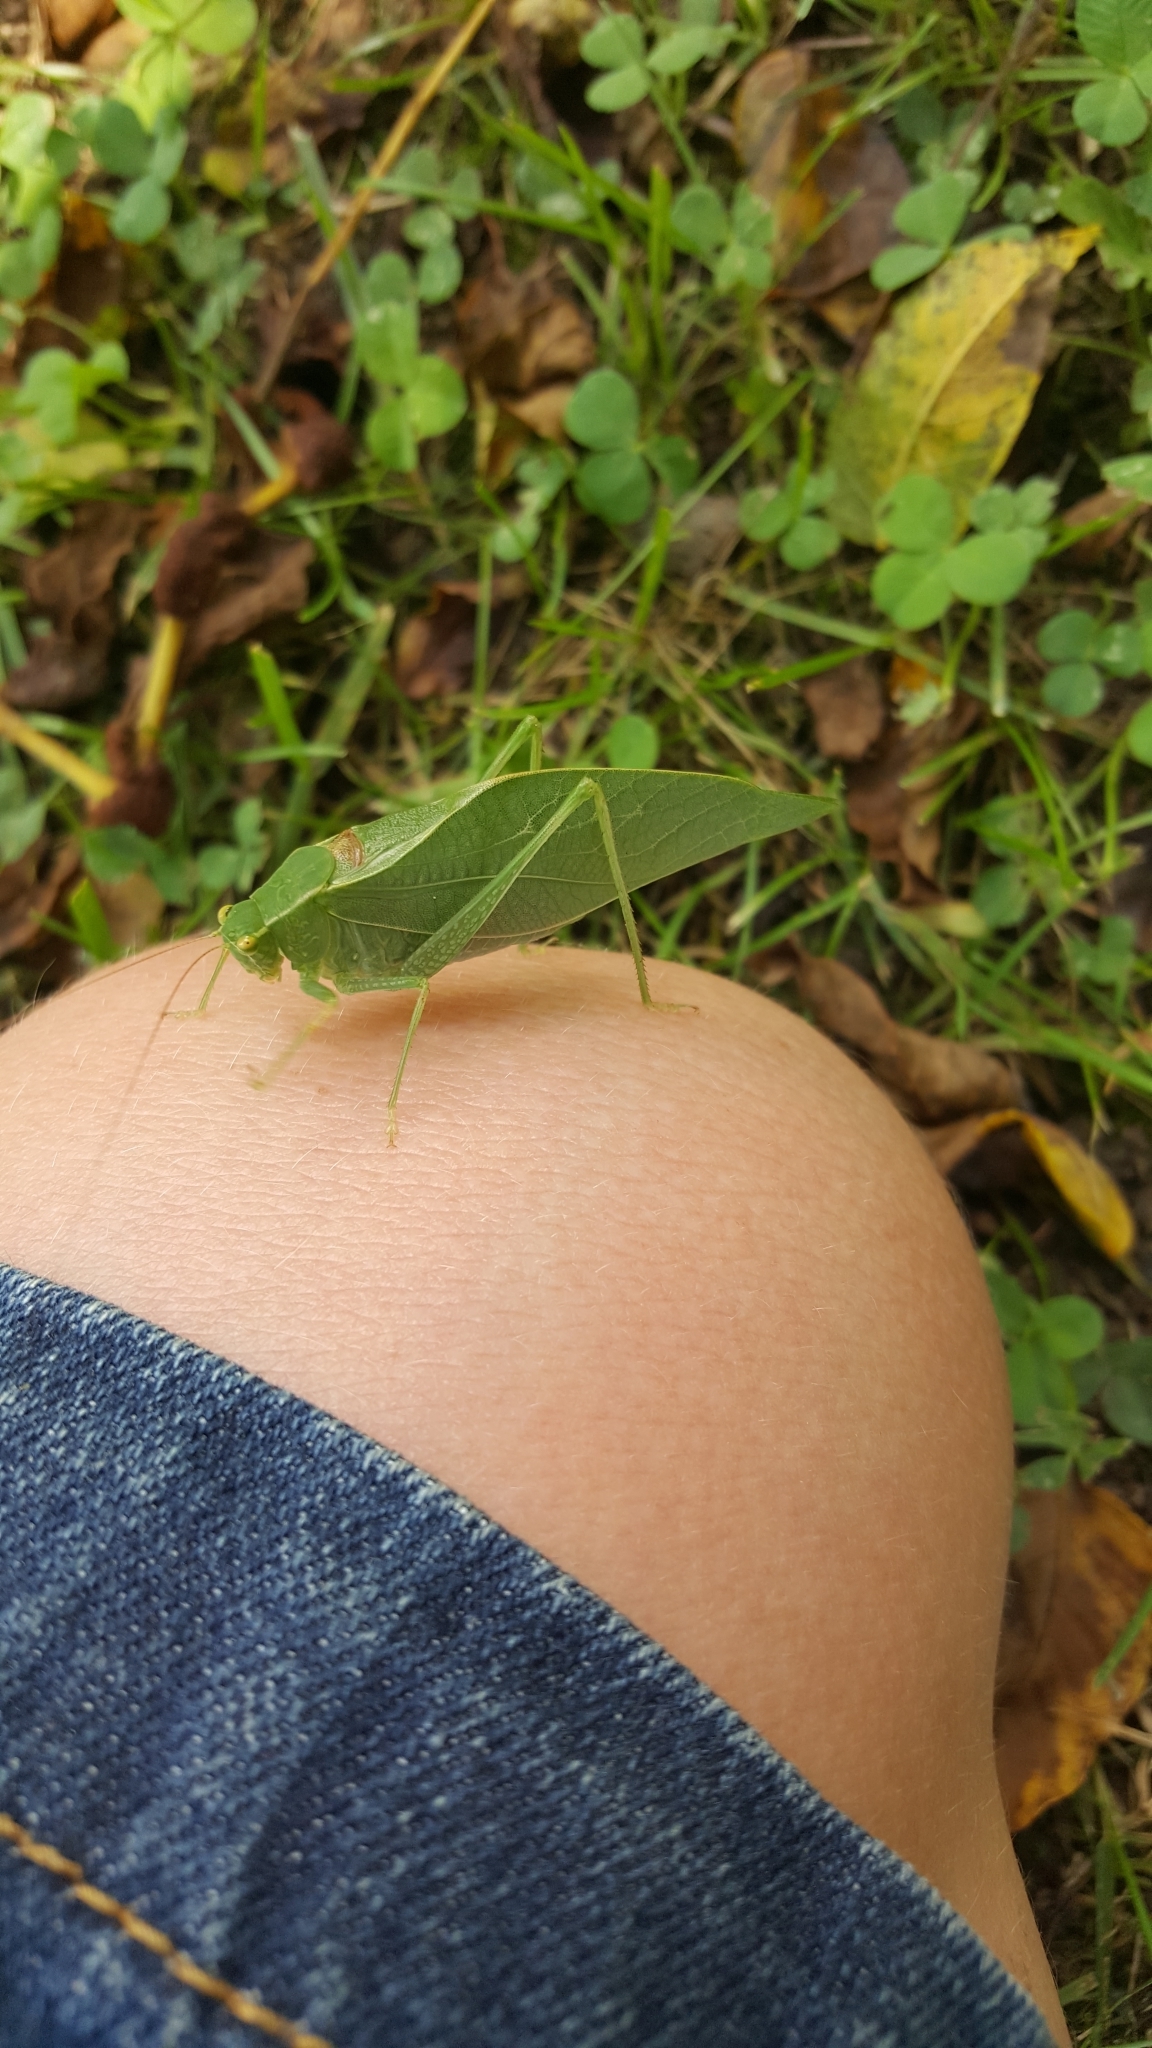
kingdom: Animalia
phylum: Arthropoda
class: Insecta
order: Orthoptera
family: Tettigoniidae
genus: Microcentrum
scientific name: Microcentrum retinerve
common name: Angular-winged katydid
